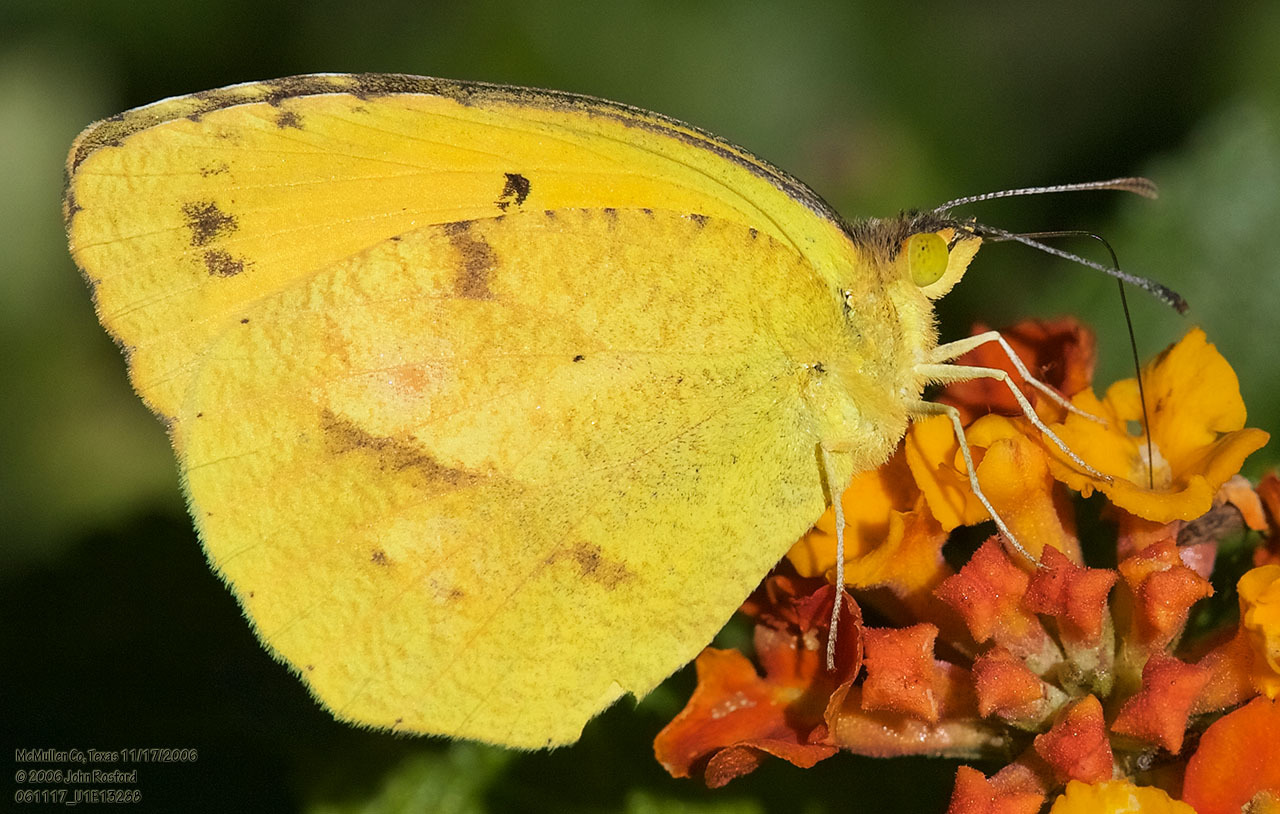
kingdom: Animalia
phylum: Arthropoda
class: Insecta
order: Lepidoptera
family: Pieridae
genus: Abaeis
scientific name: Abaeis nicippe
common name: Sleepy orange
